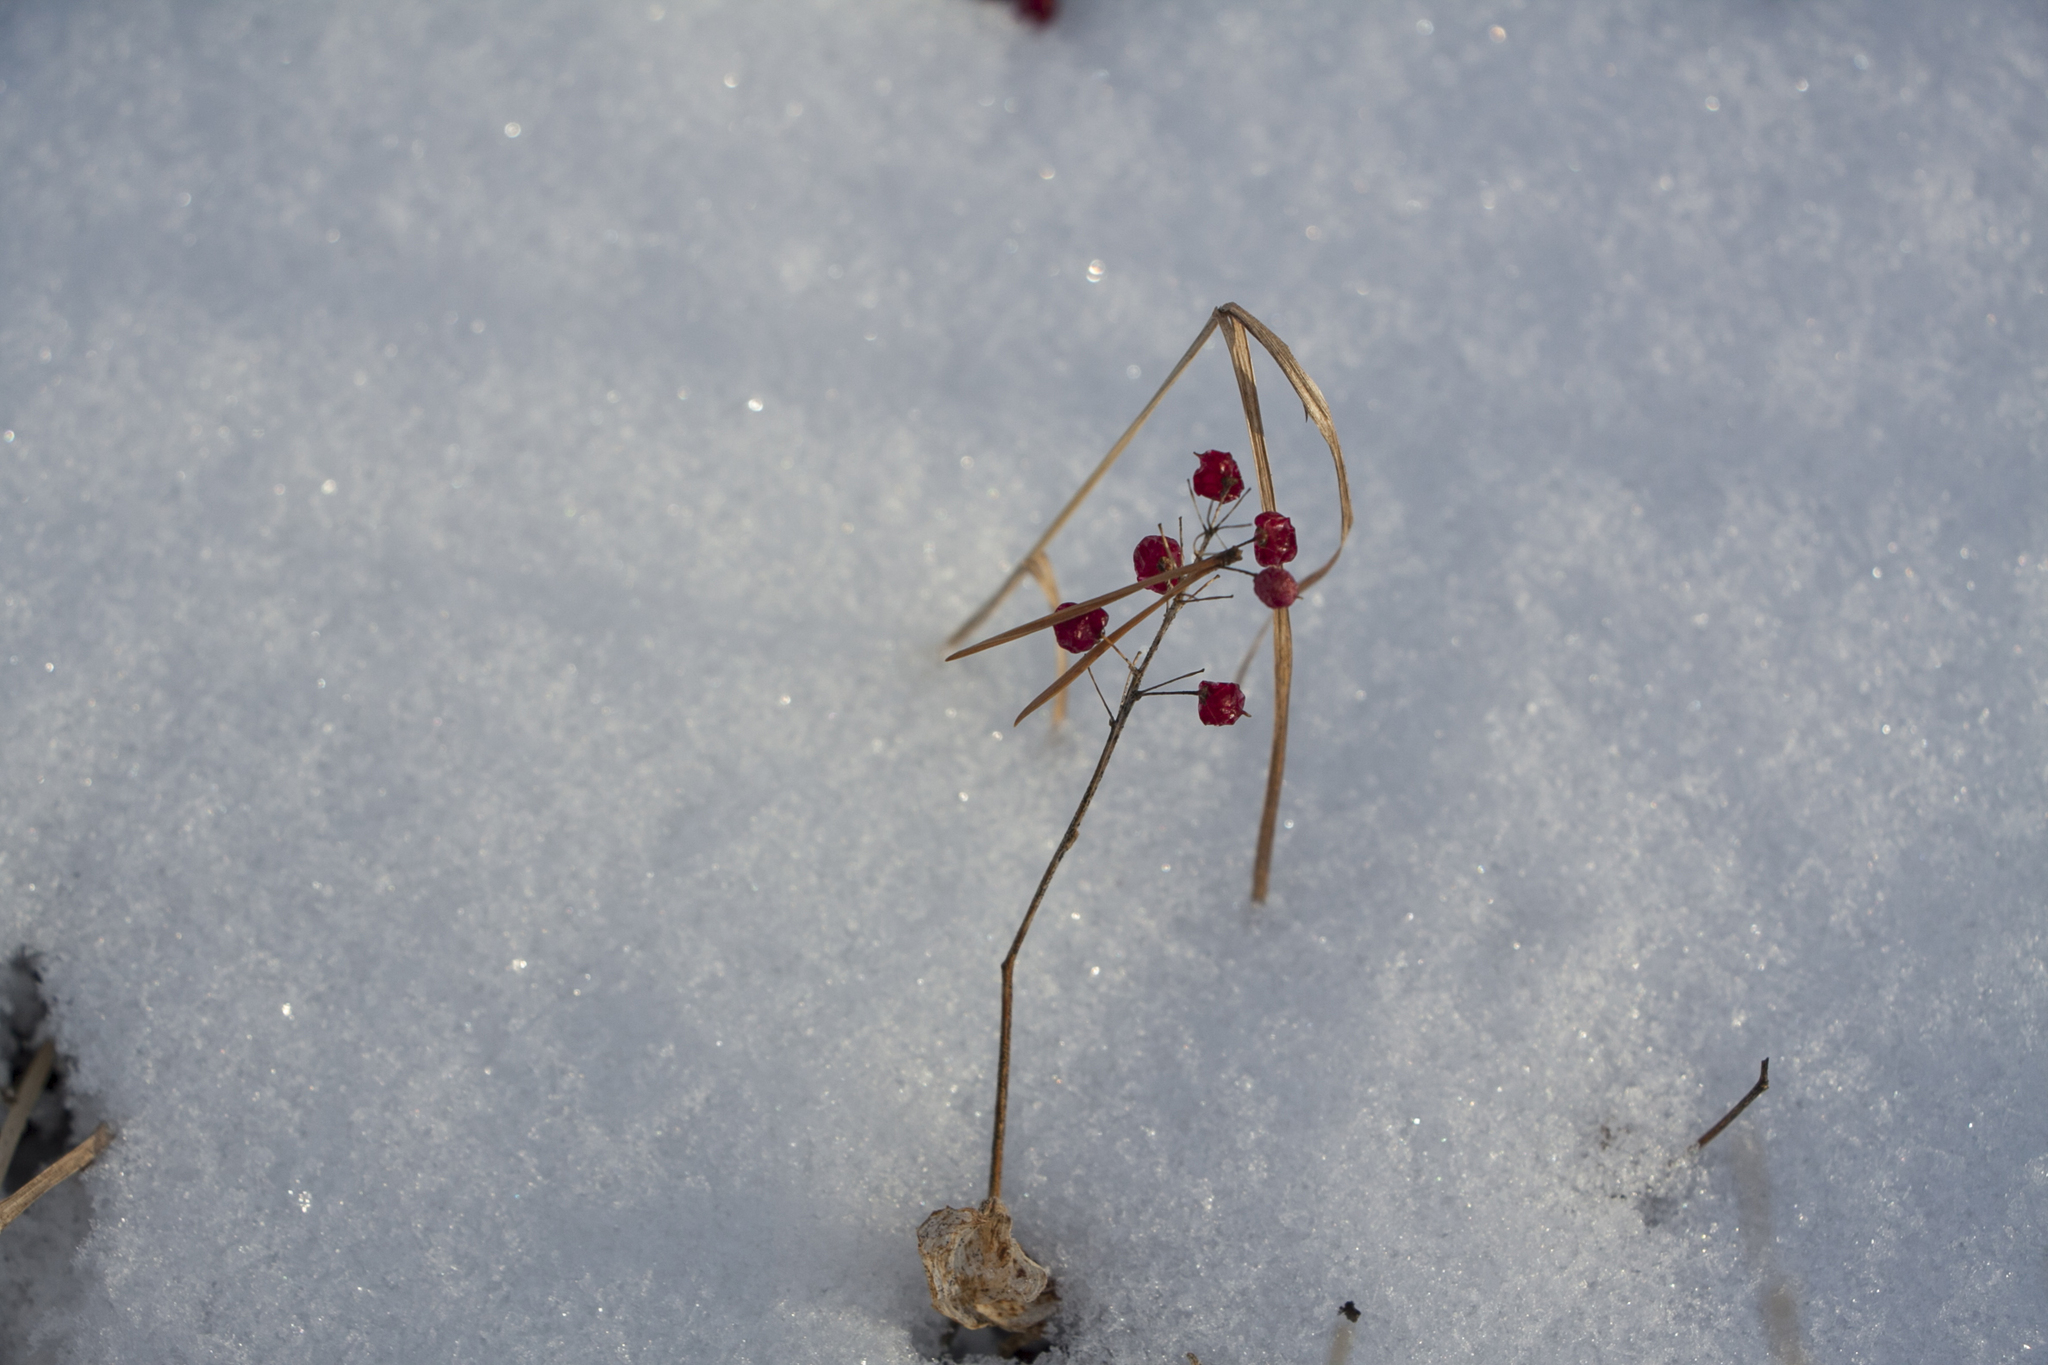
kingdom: Plantae
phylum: Tracheophyta
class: Liliopsida
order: Asparagales
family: Asparagaceae
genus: Maianthemum
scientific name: Maianthemum bifolium
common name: May lily
